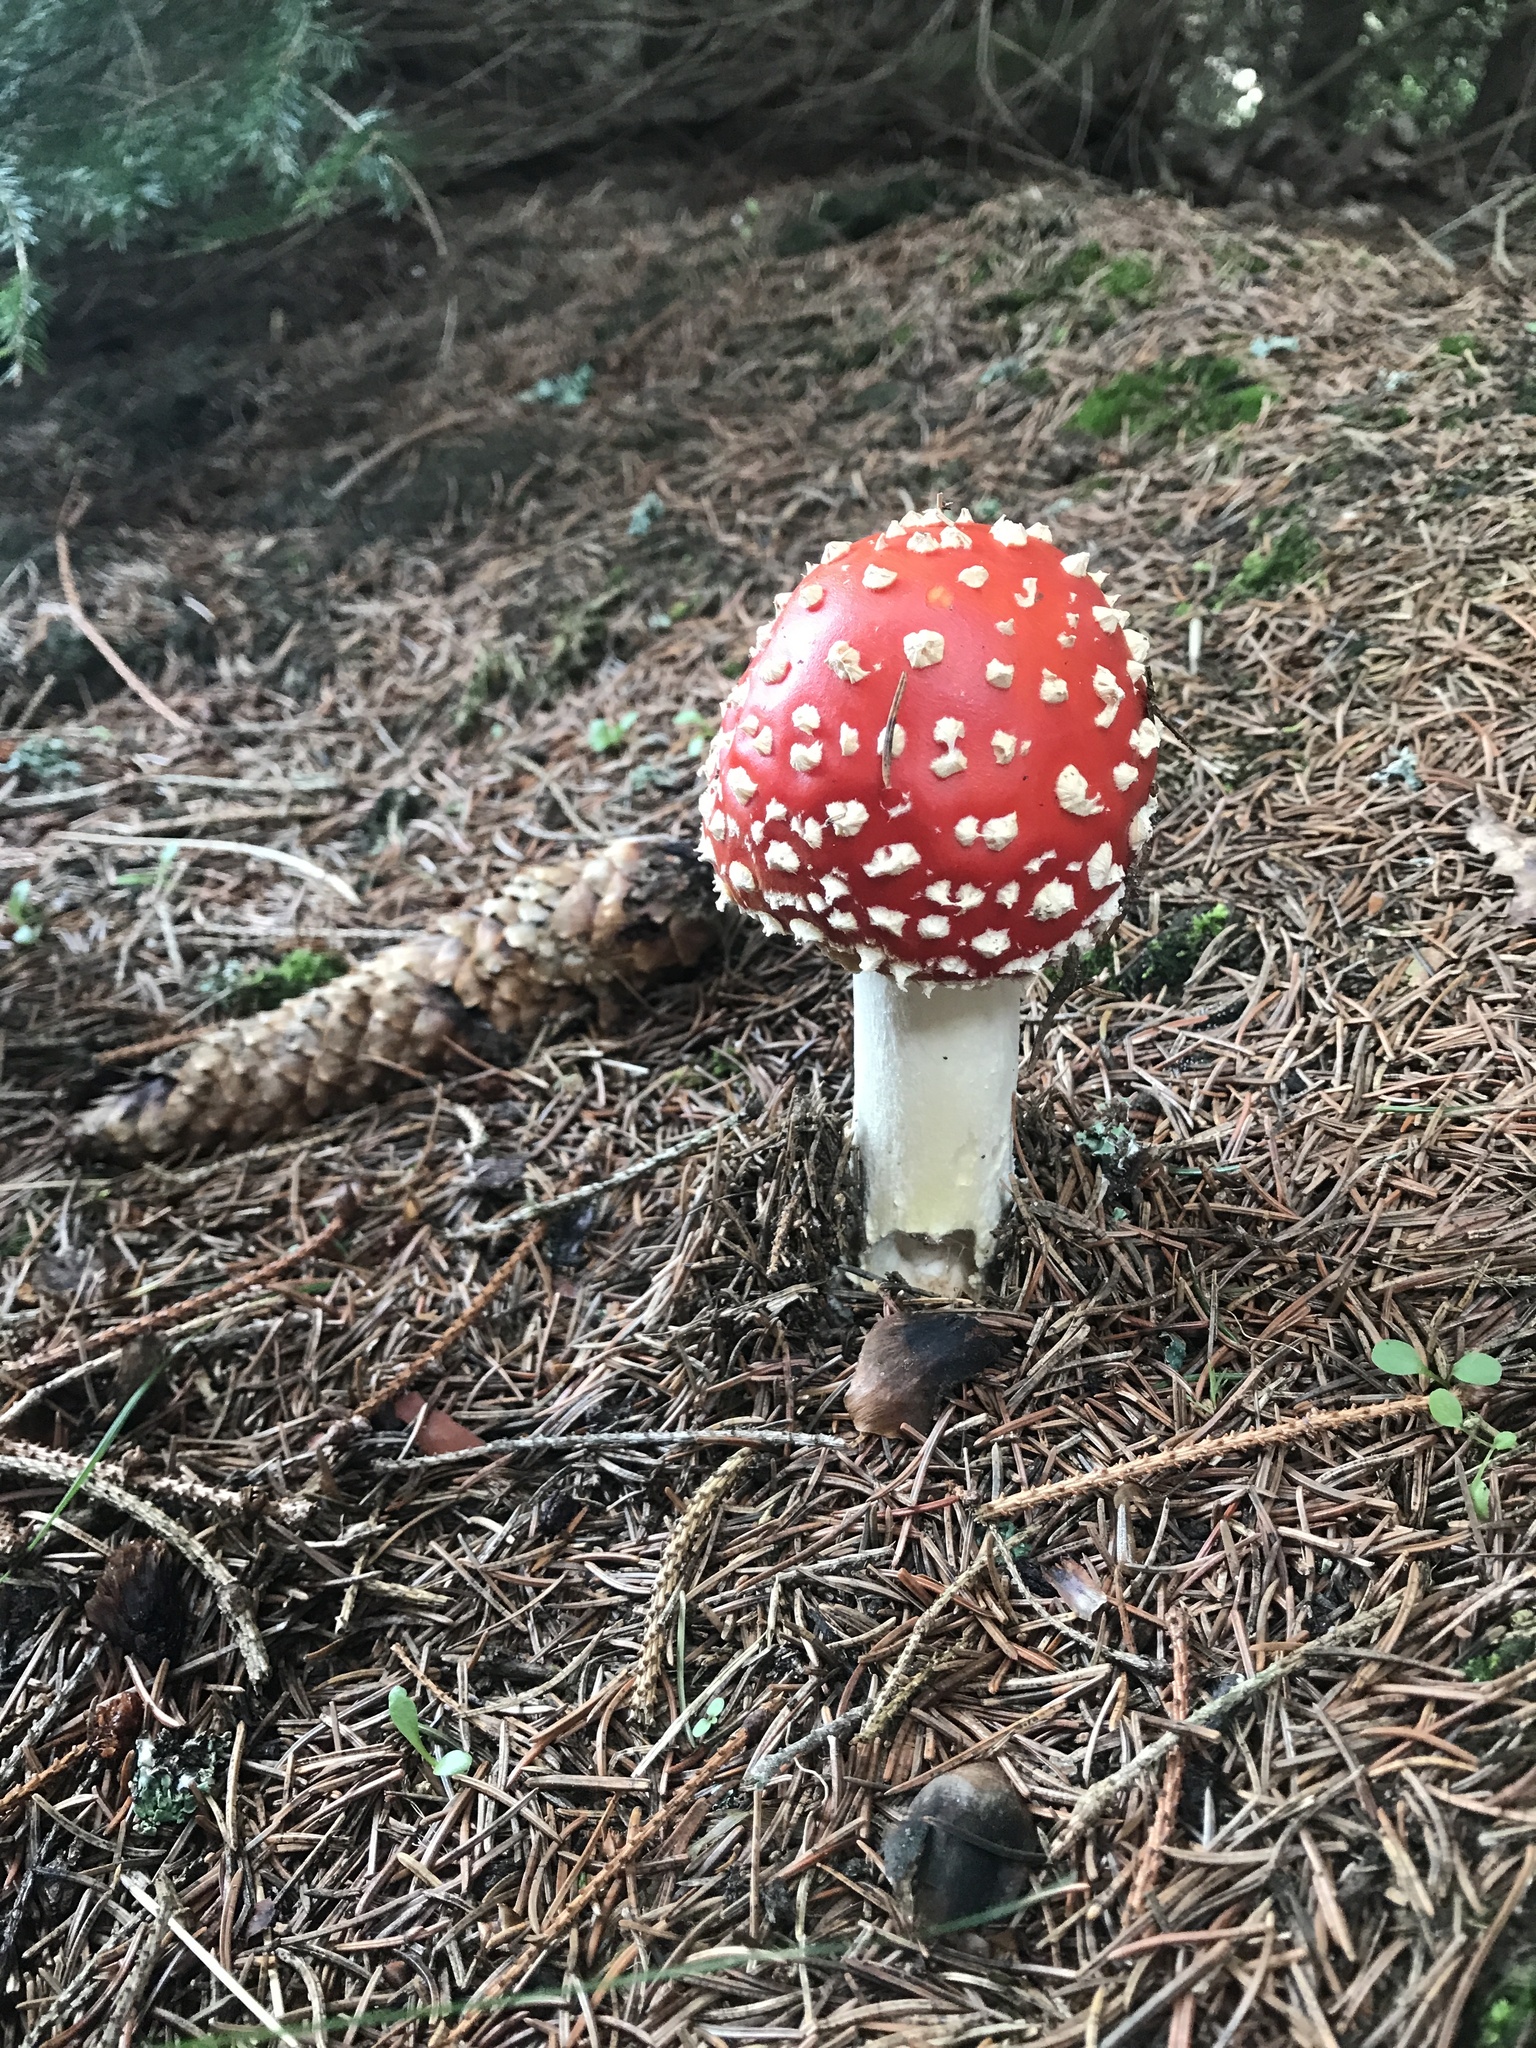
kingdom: Fungi
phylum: Basidiomycota
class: Agaricomycetes
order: Agaricales
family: Amanitaceae
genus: Amanita
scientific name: Amanita muscaria
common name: Fly agaric
